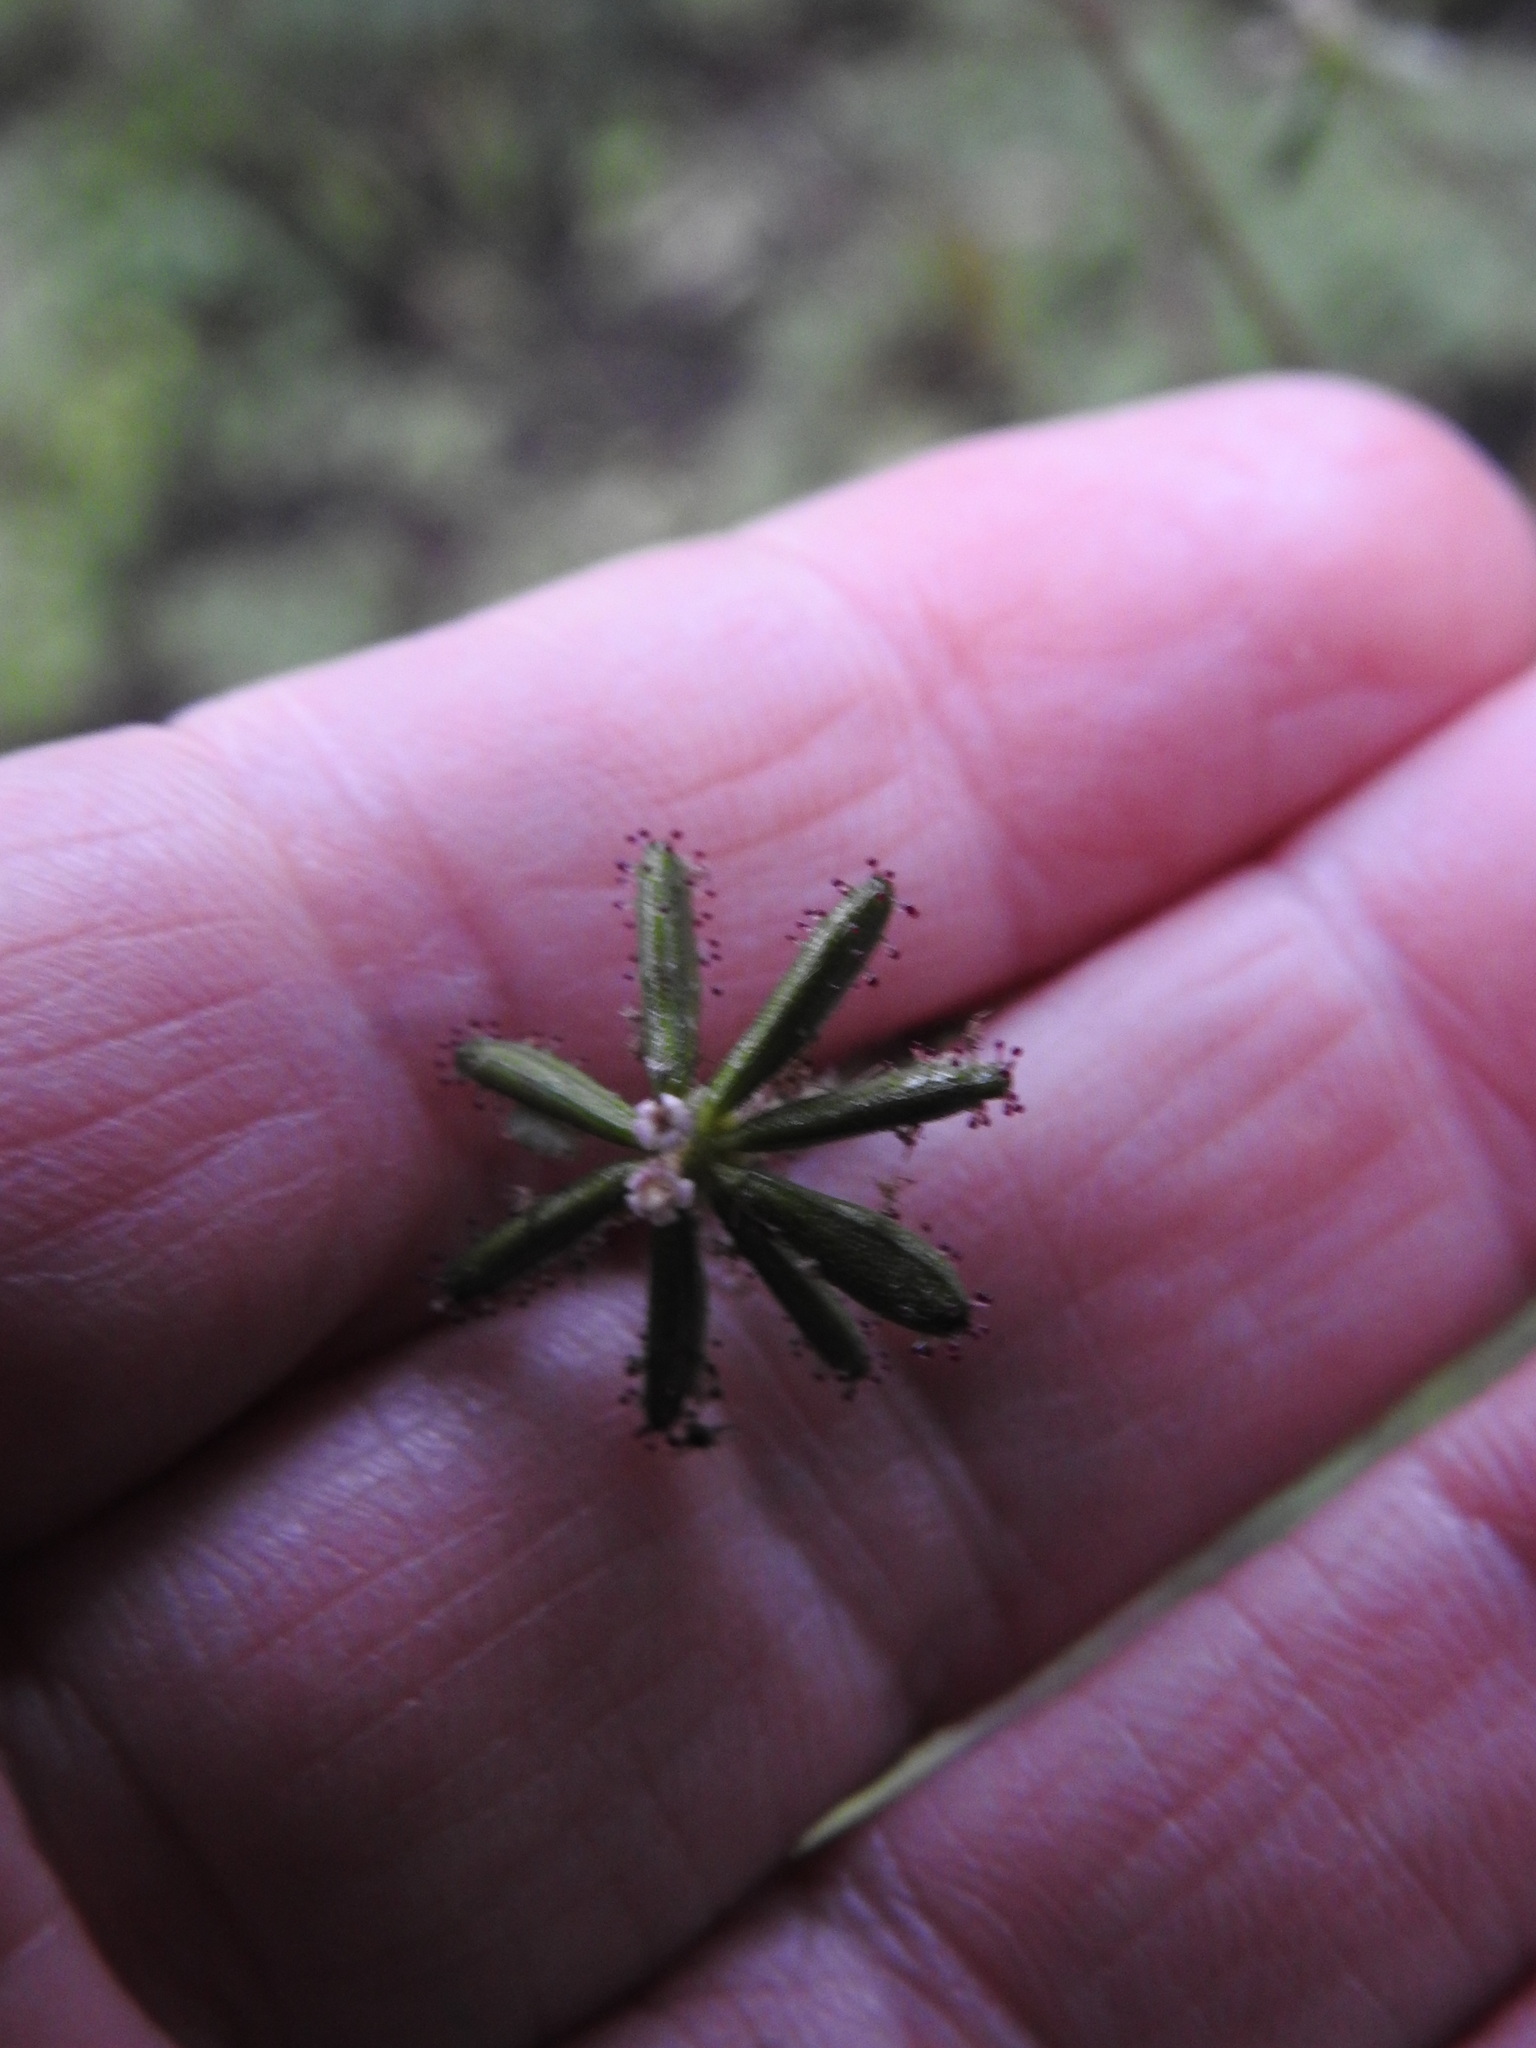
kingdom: Plantae
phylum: Tracheophyta
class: Magnoliopsida
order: Asterales
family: Asteraceae
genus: Adenocaulon
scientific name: Adenocaulon chilense
